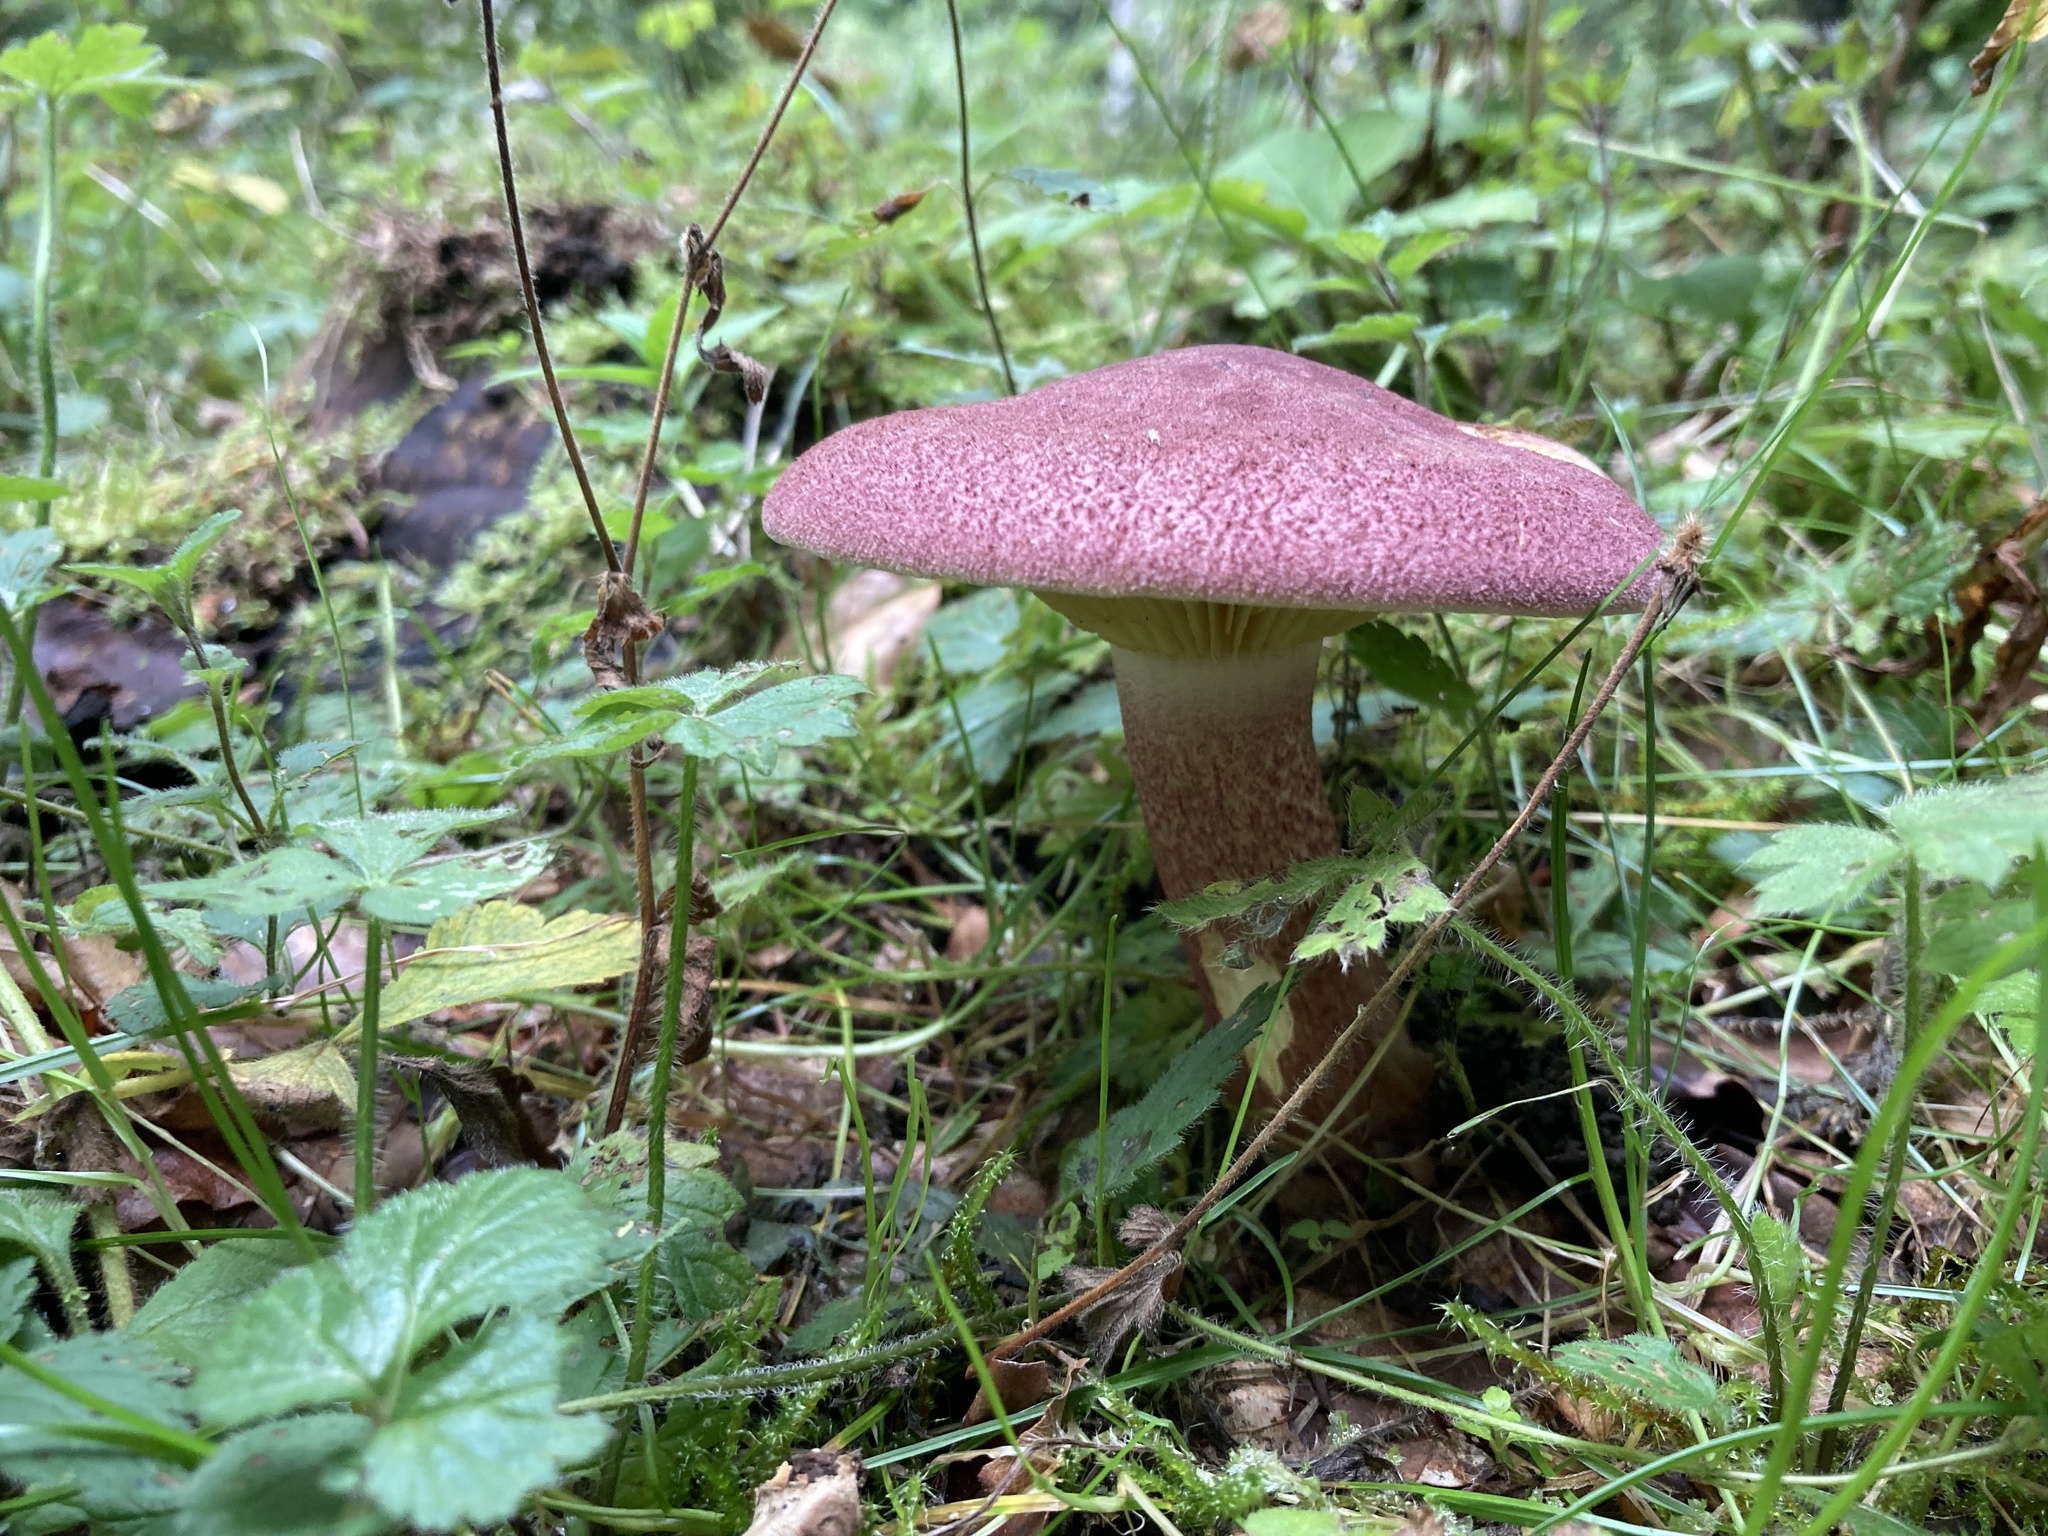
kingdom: Fungi
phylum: Basidiomycota
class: Agaricomycetes
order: Agaricales
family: Tricholomataceae
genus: Tricholomopsis
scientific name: Tricholomopsis rutilans
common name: Plums and custard
